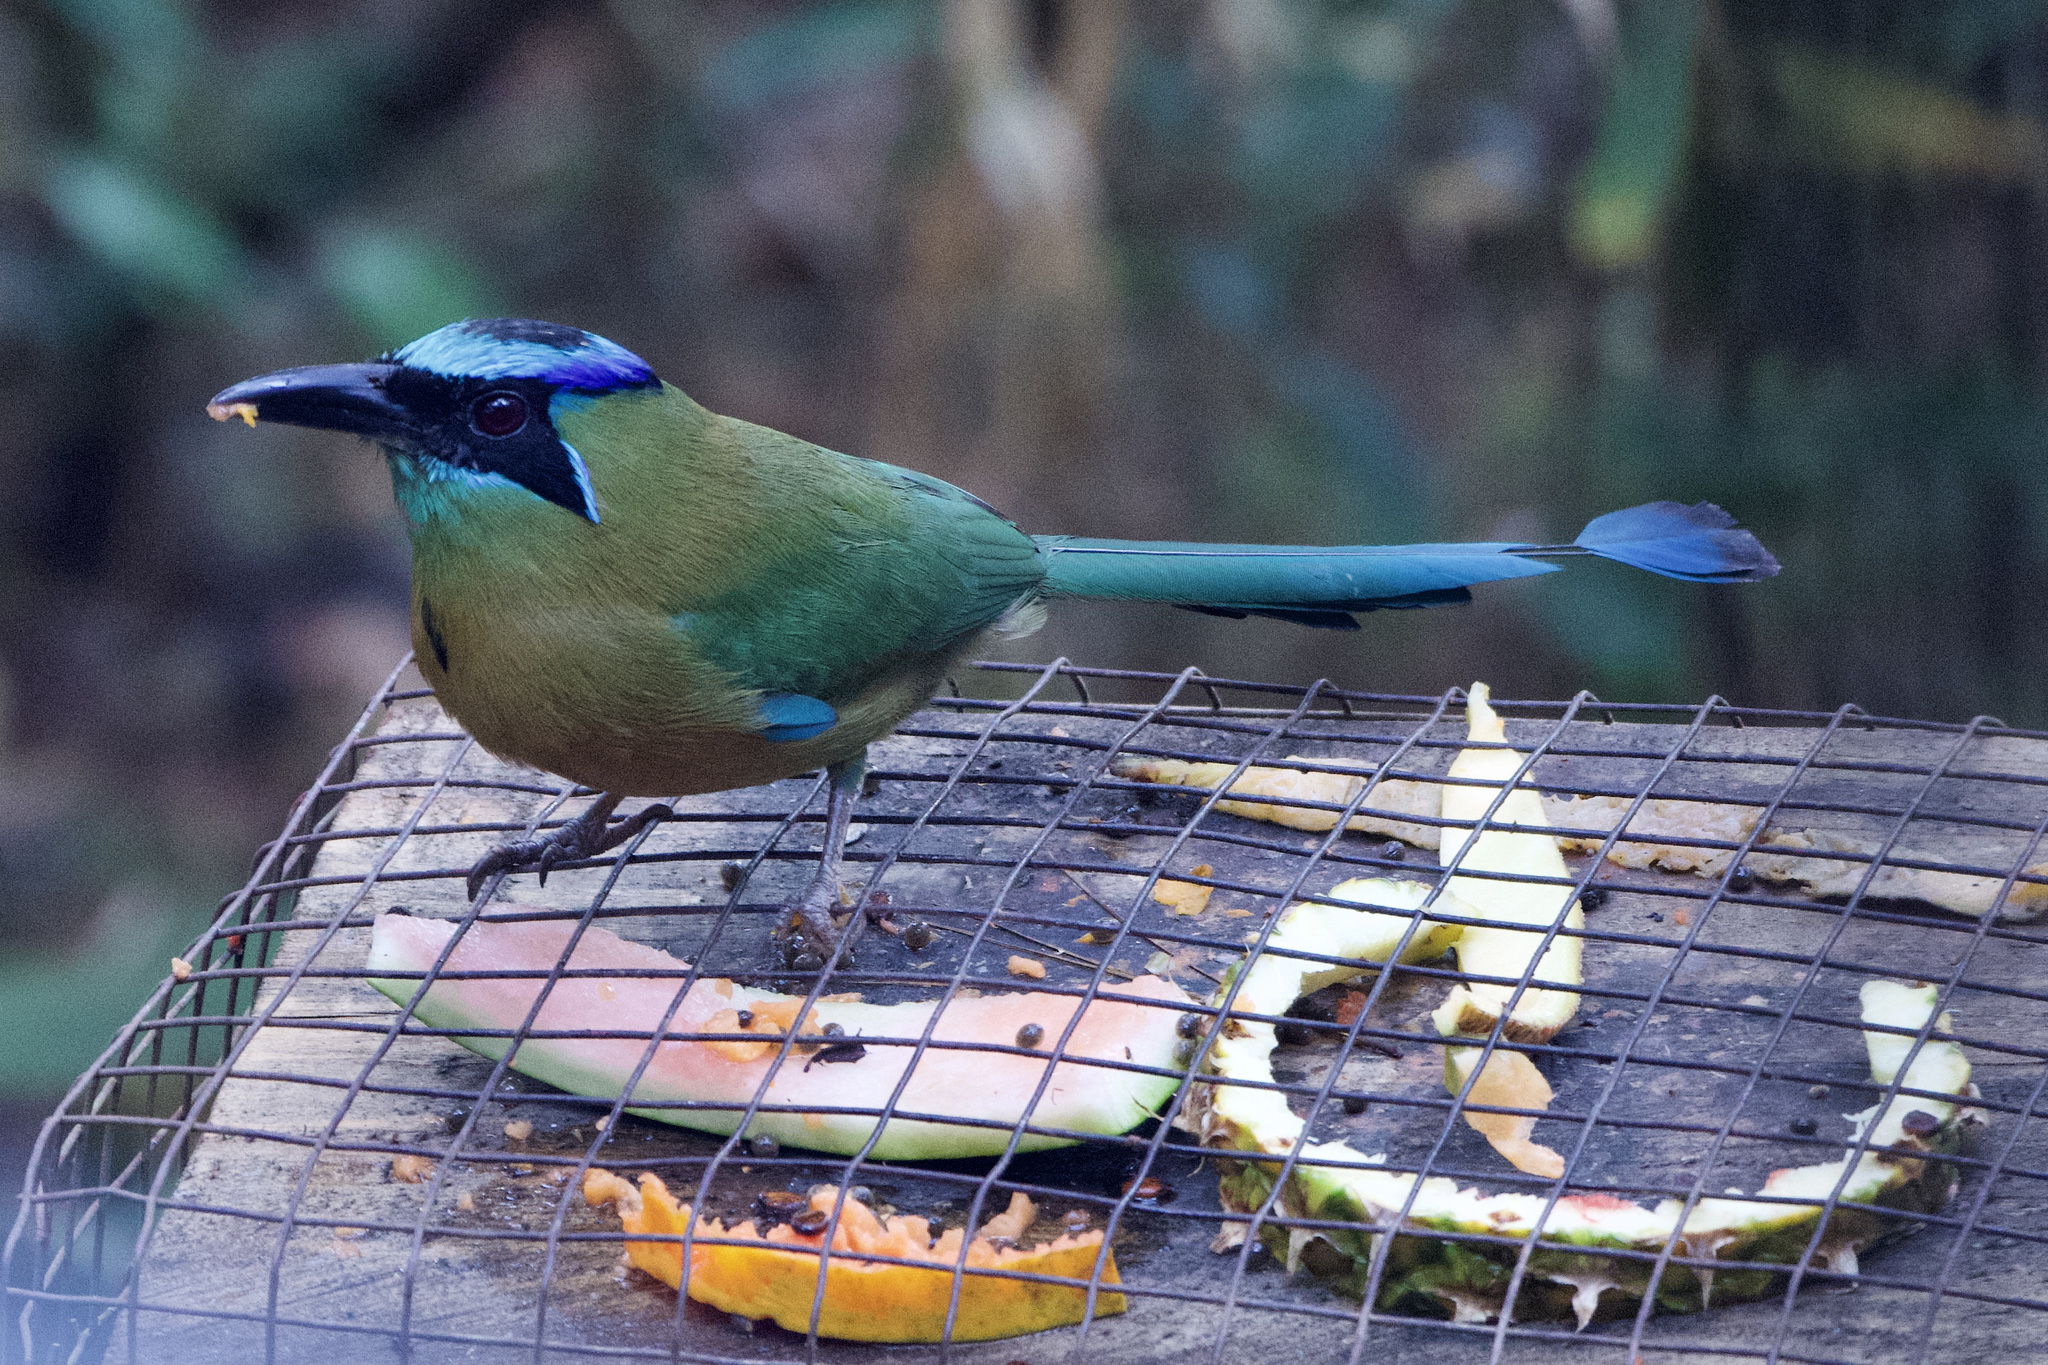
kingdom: Animalia
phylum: Chordata
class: Aves
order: Coraciiformes
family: Momotidae
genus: Momotus
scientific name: Momotus lessonii
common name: Lesson's motmot
